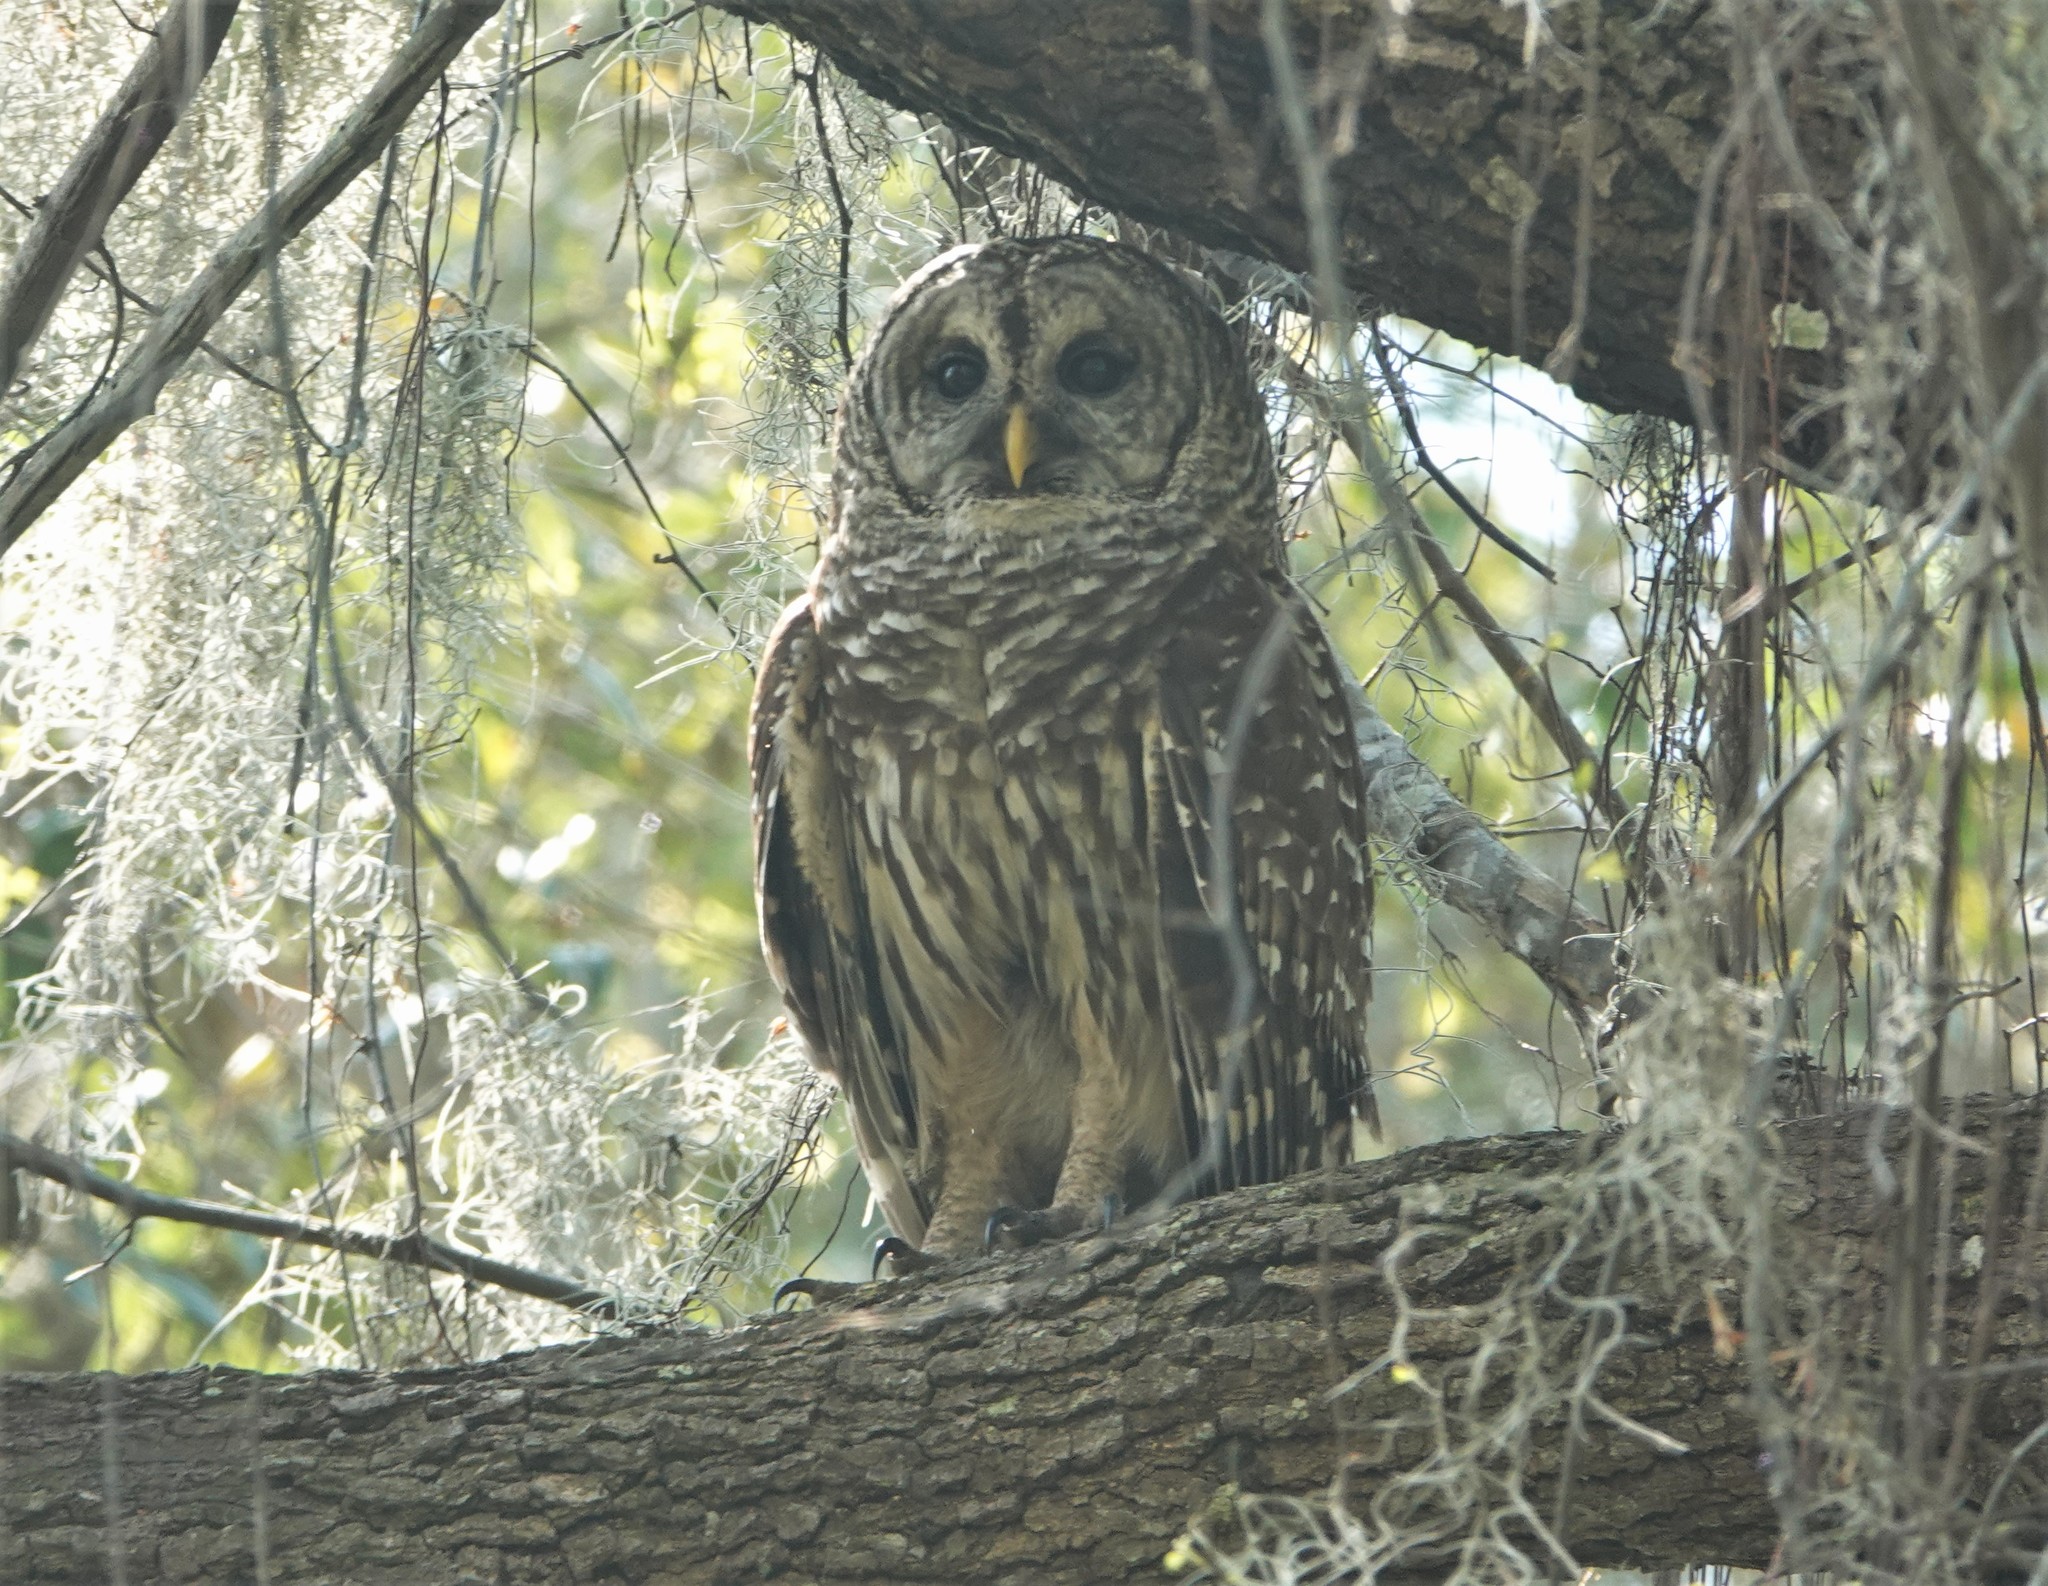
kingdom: Animalia
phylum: Chordata
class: Aves
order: Strigiformes
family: Strigidae
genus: Strix
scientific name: Strix varia
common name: Barred owl
